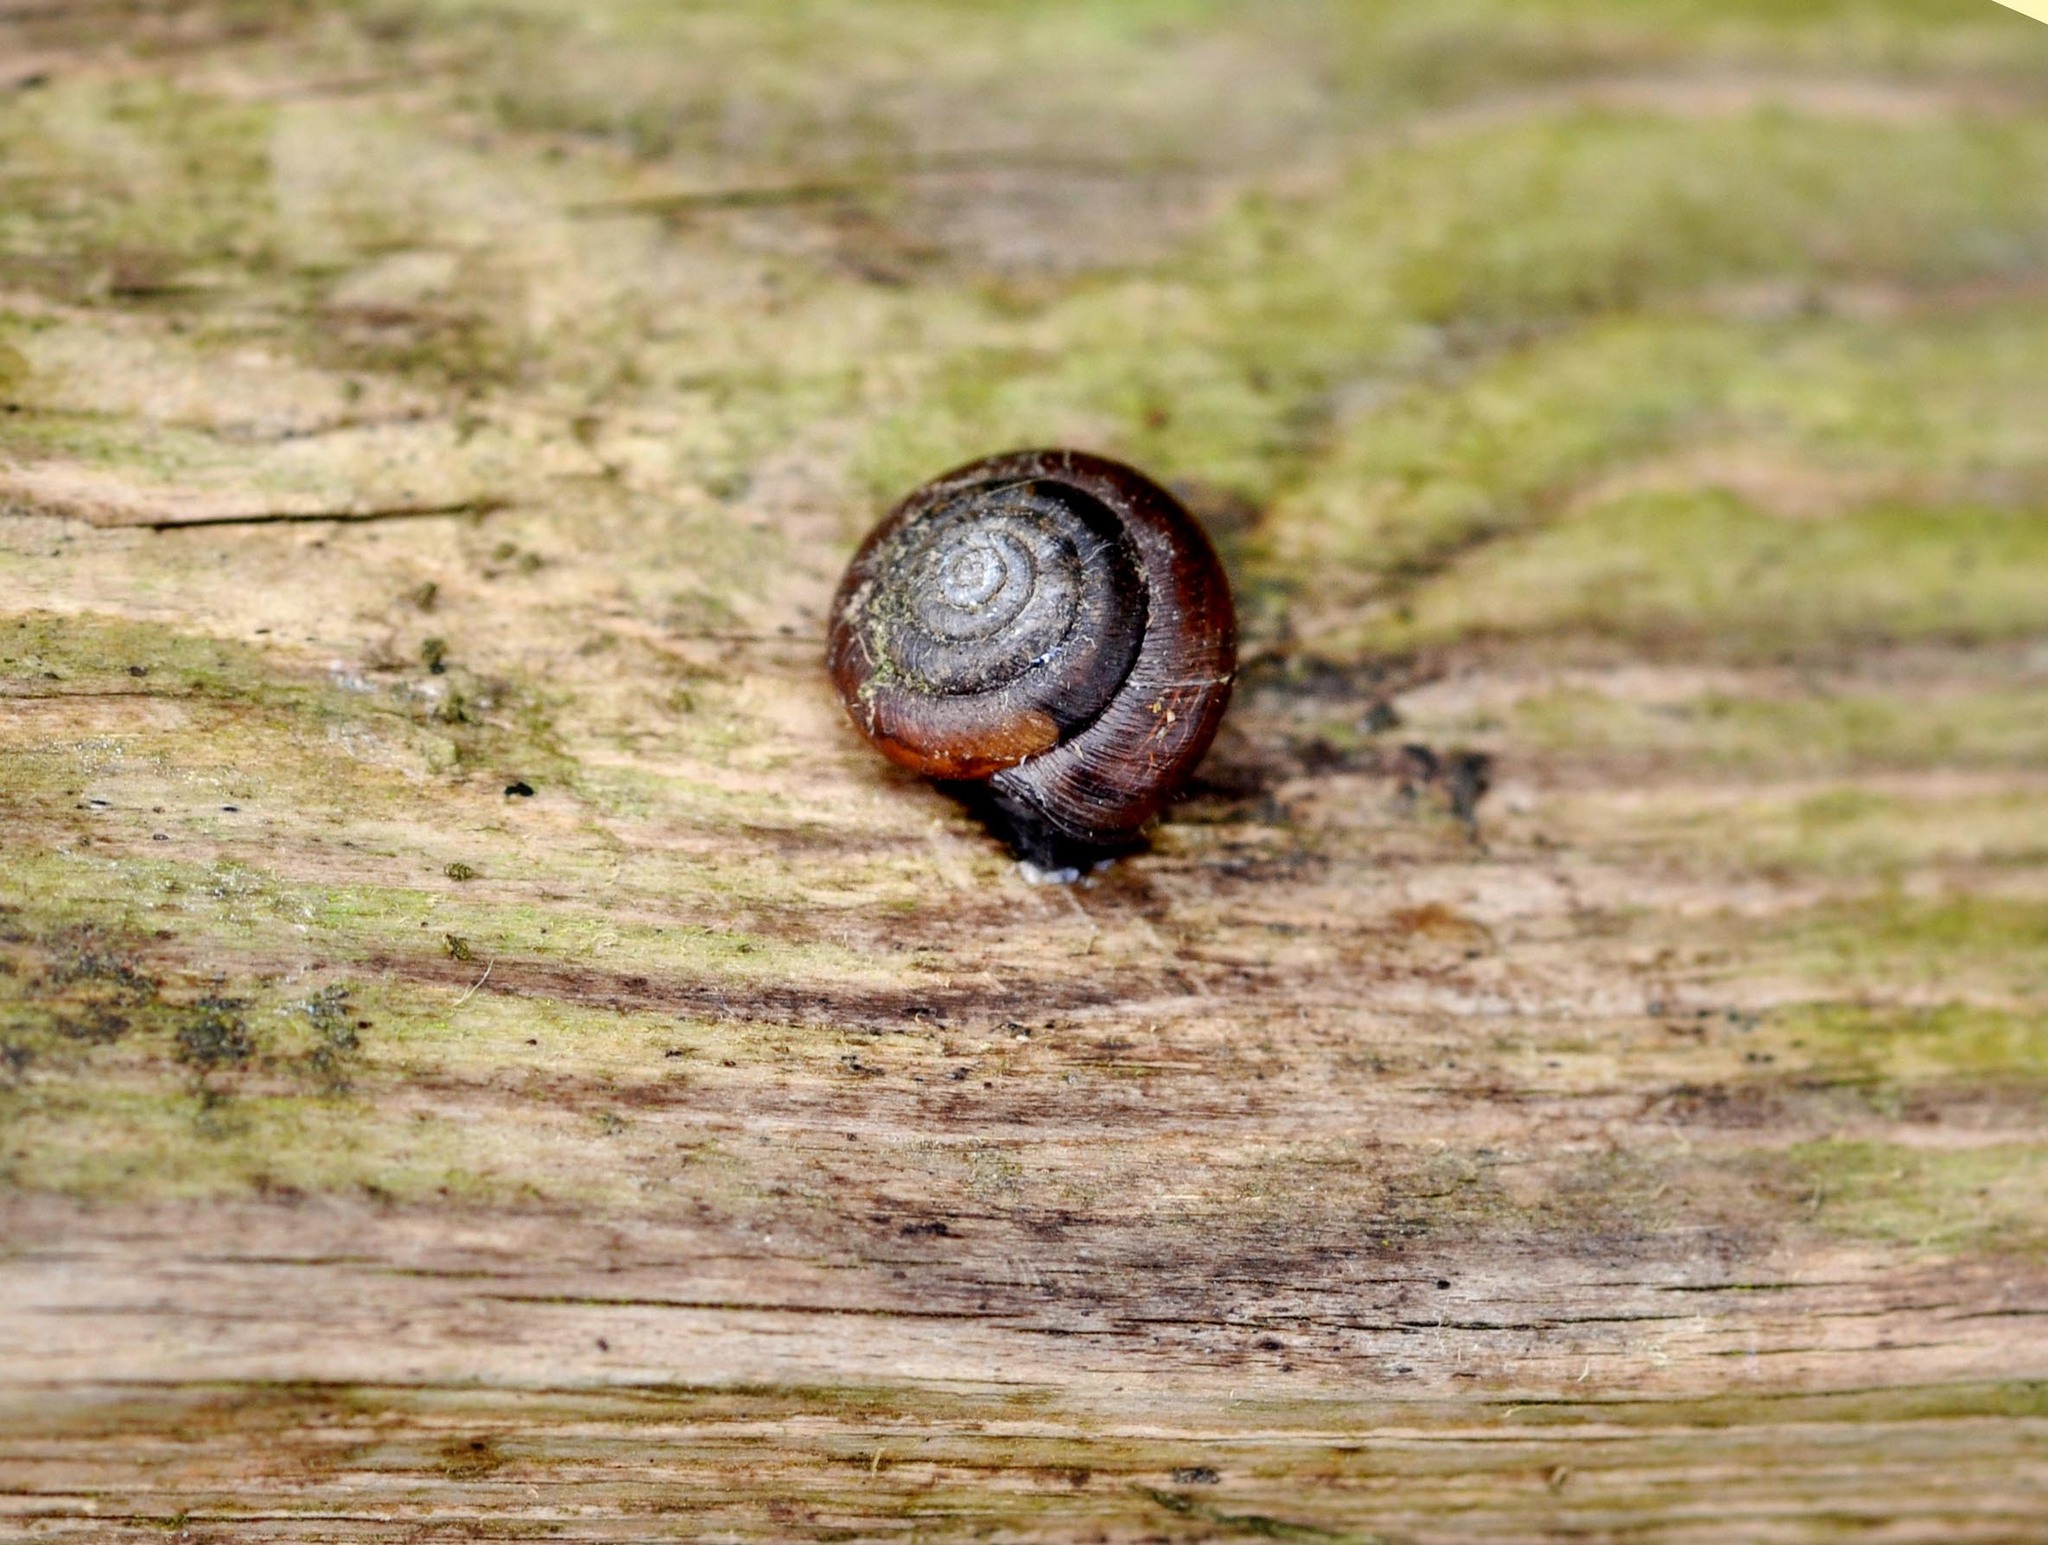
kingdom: Animalia
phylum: Mollusca
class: Gastropoda
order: Stylommatophora
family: Hygromiidae
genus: Trochulus
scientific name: Trochulus striolatus
